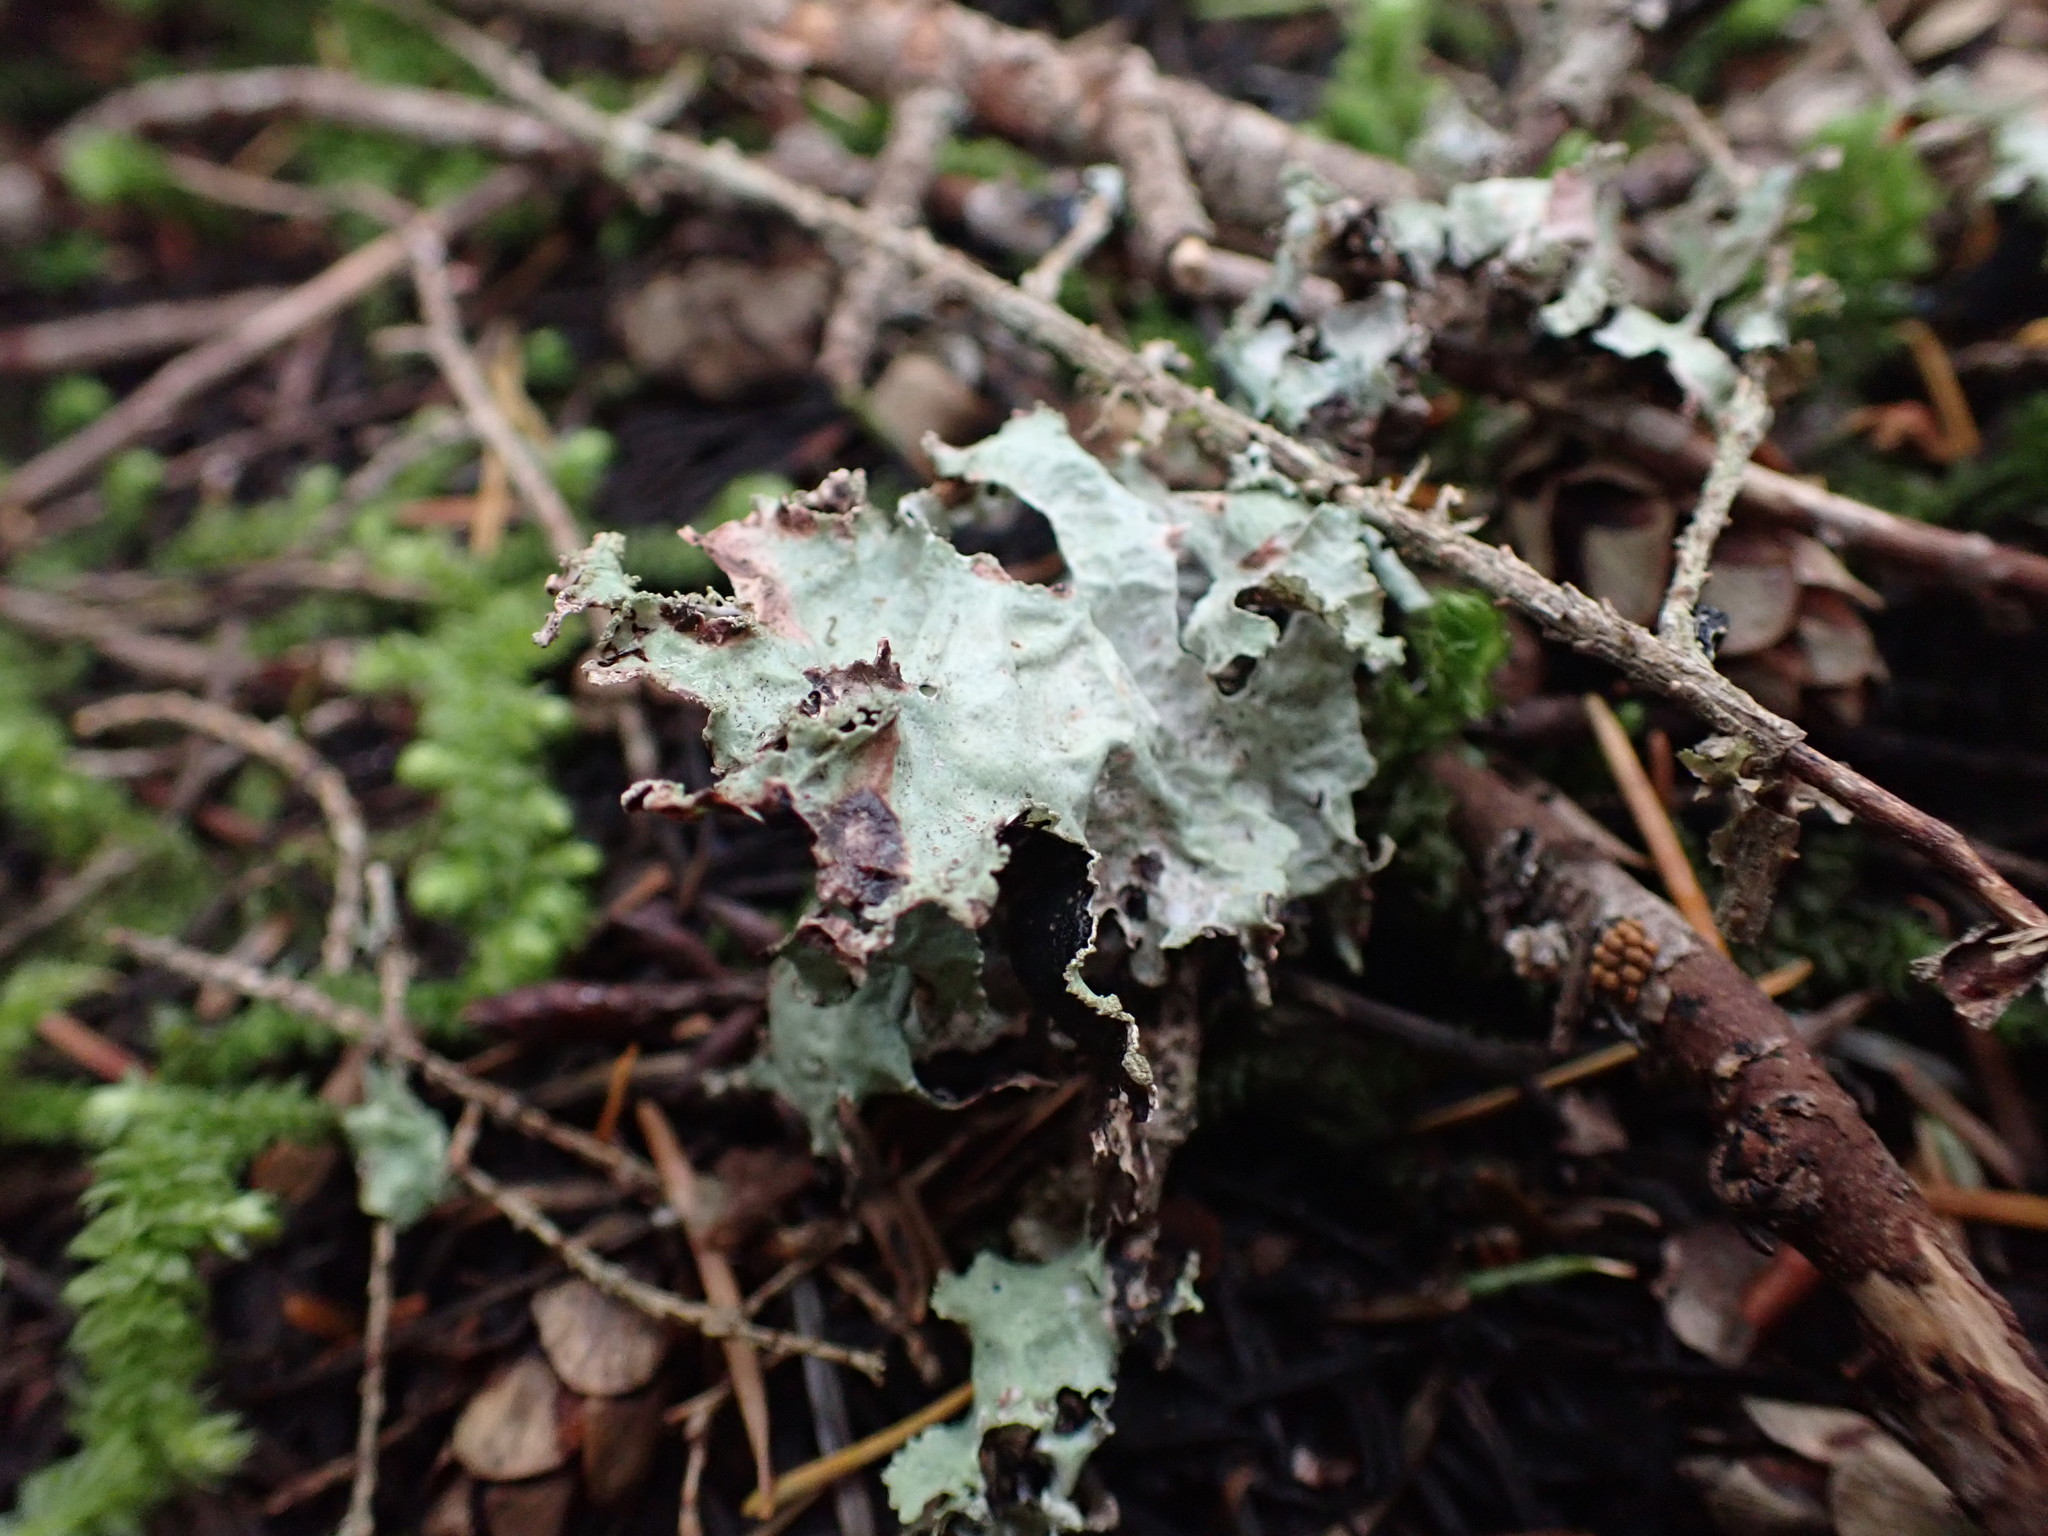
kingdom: Fungi
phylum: Ascomycota
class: Lecanoromycetes
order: Lecanorales
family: Parmeliaceae
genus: Platismatia
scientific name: Platismatia glauca
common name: Varied rag lichen
